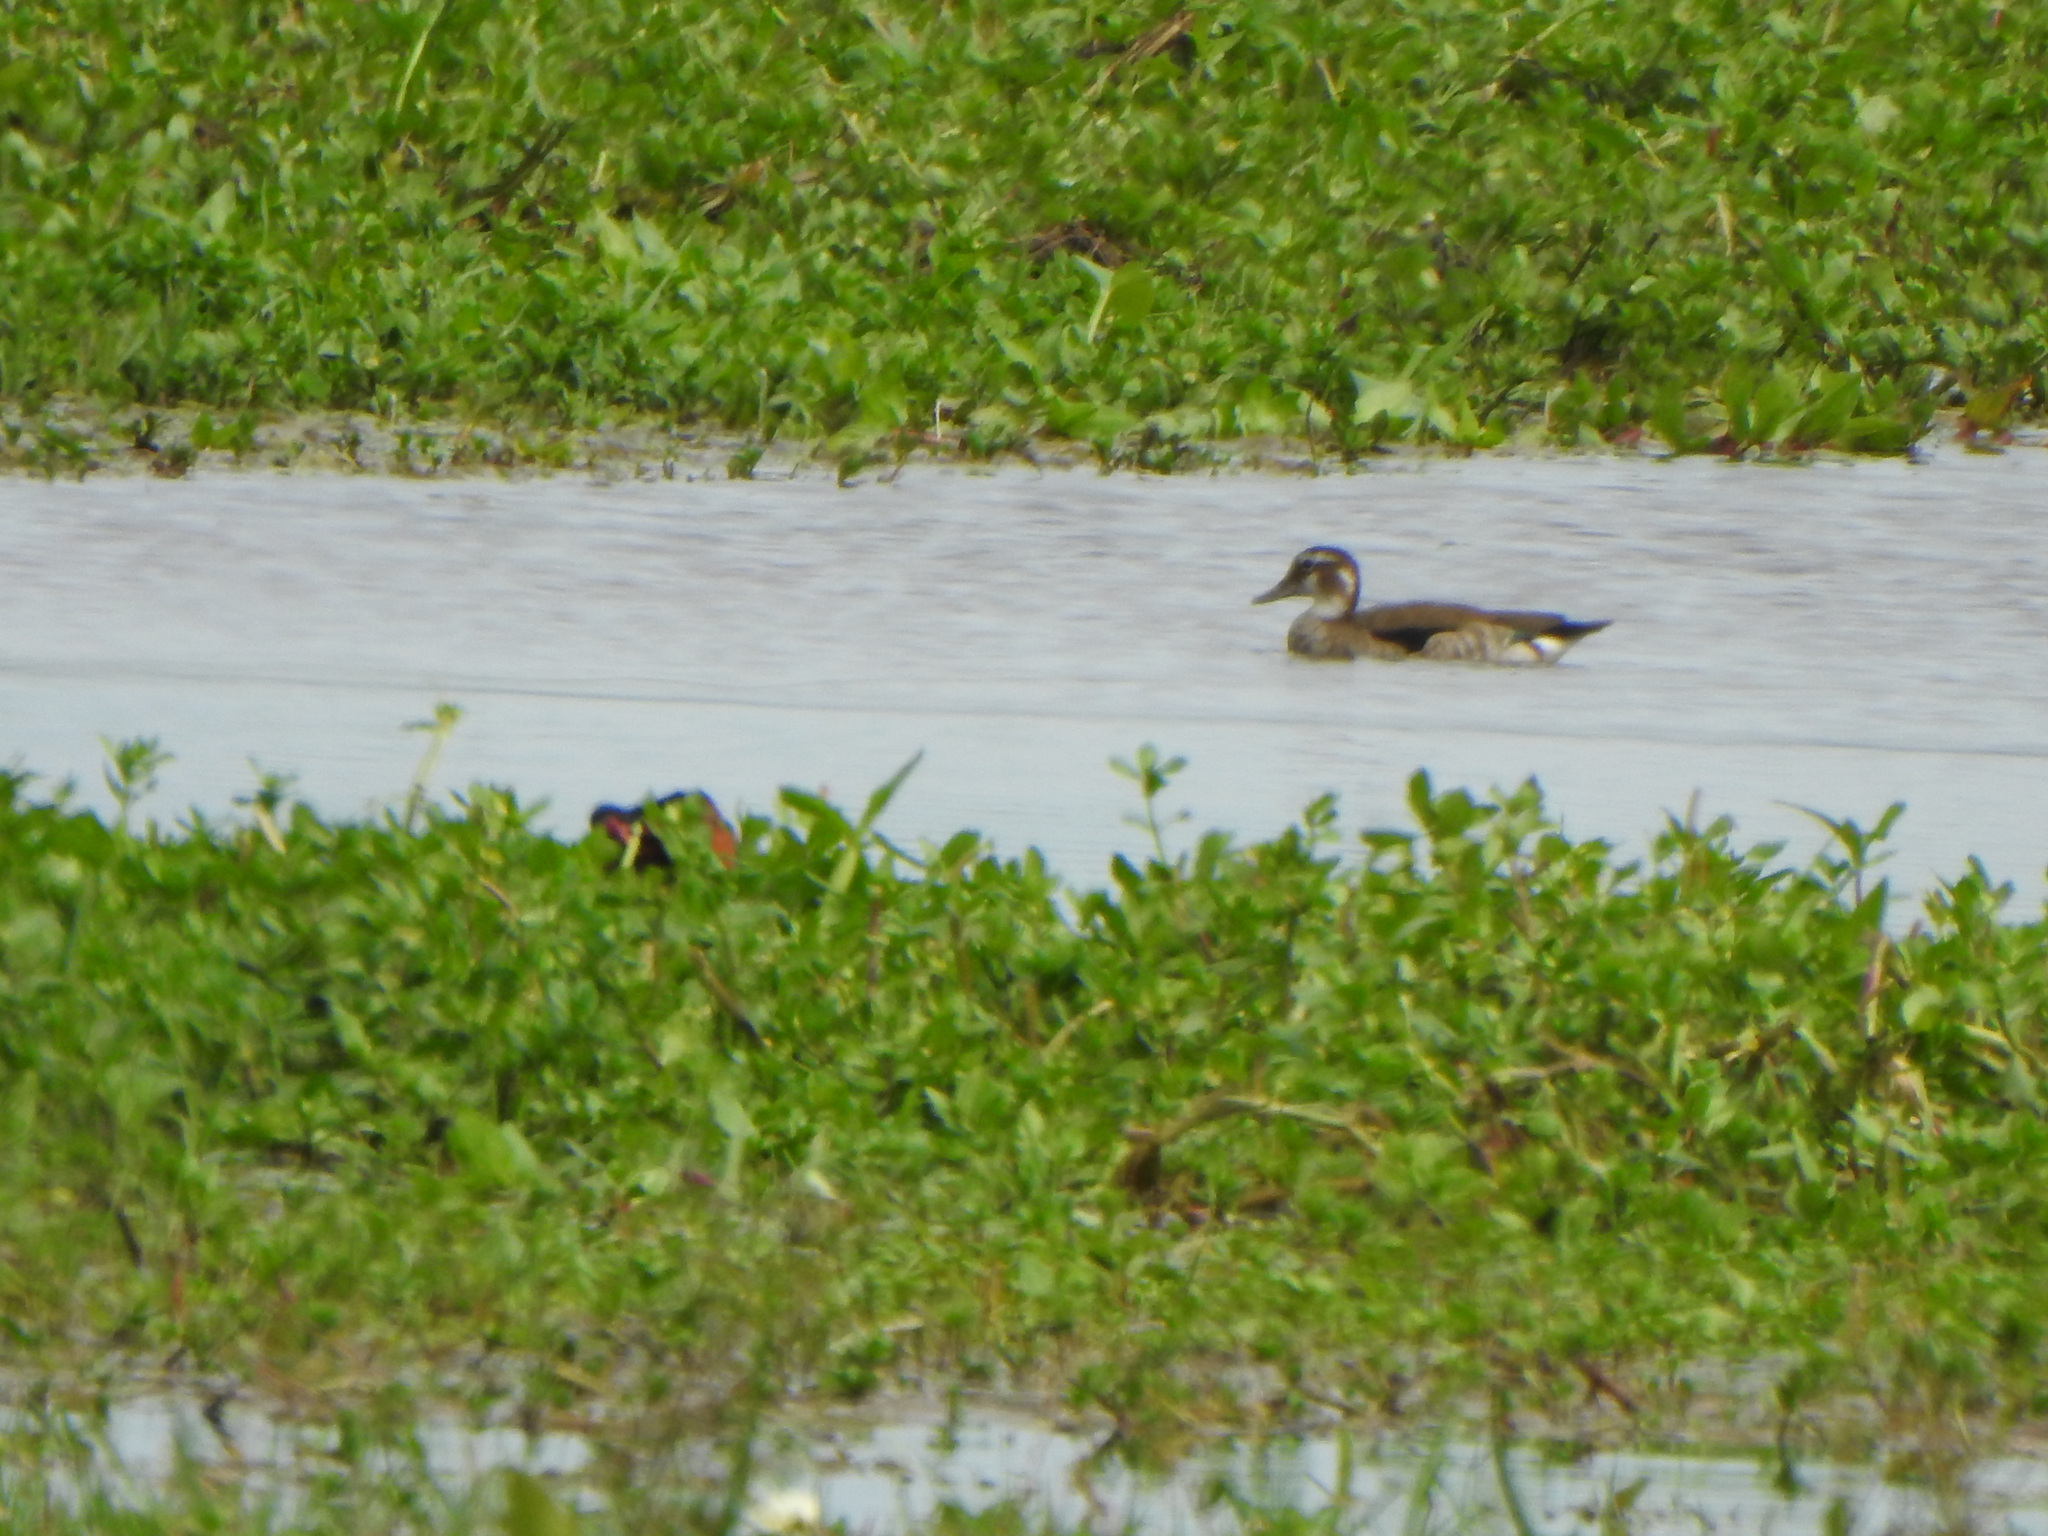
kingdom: Animalia
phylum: Chordata
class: Aves
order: Anseriformes
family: Anatidae
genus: Callonetta
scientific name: Callonetta leucophrys
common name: Ringed teal
